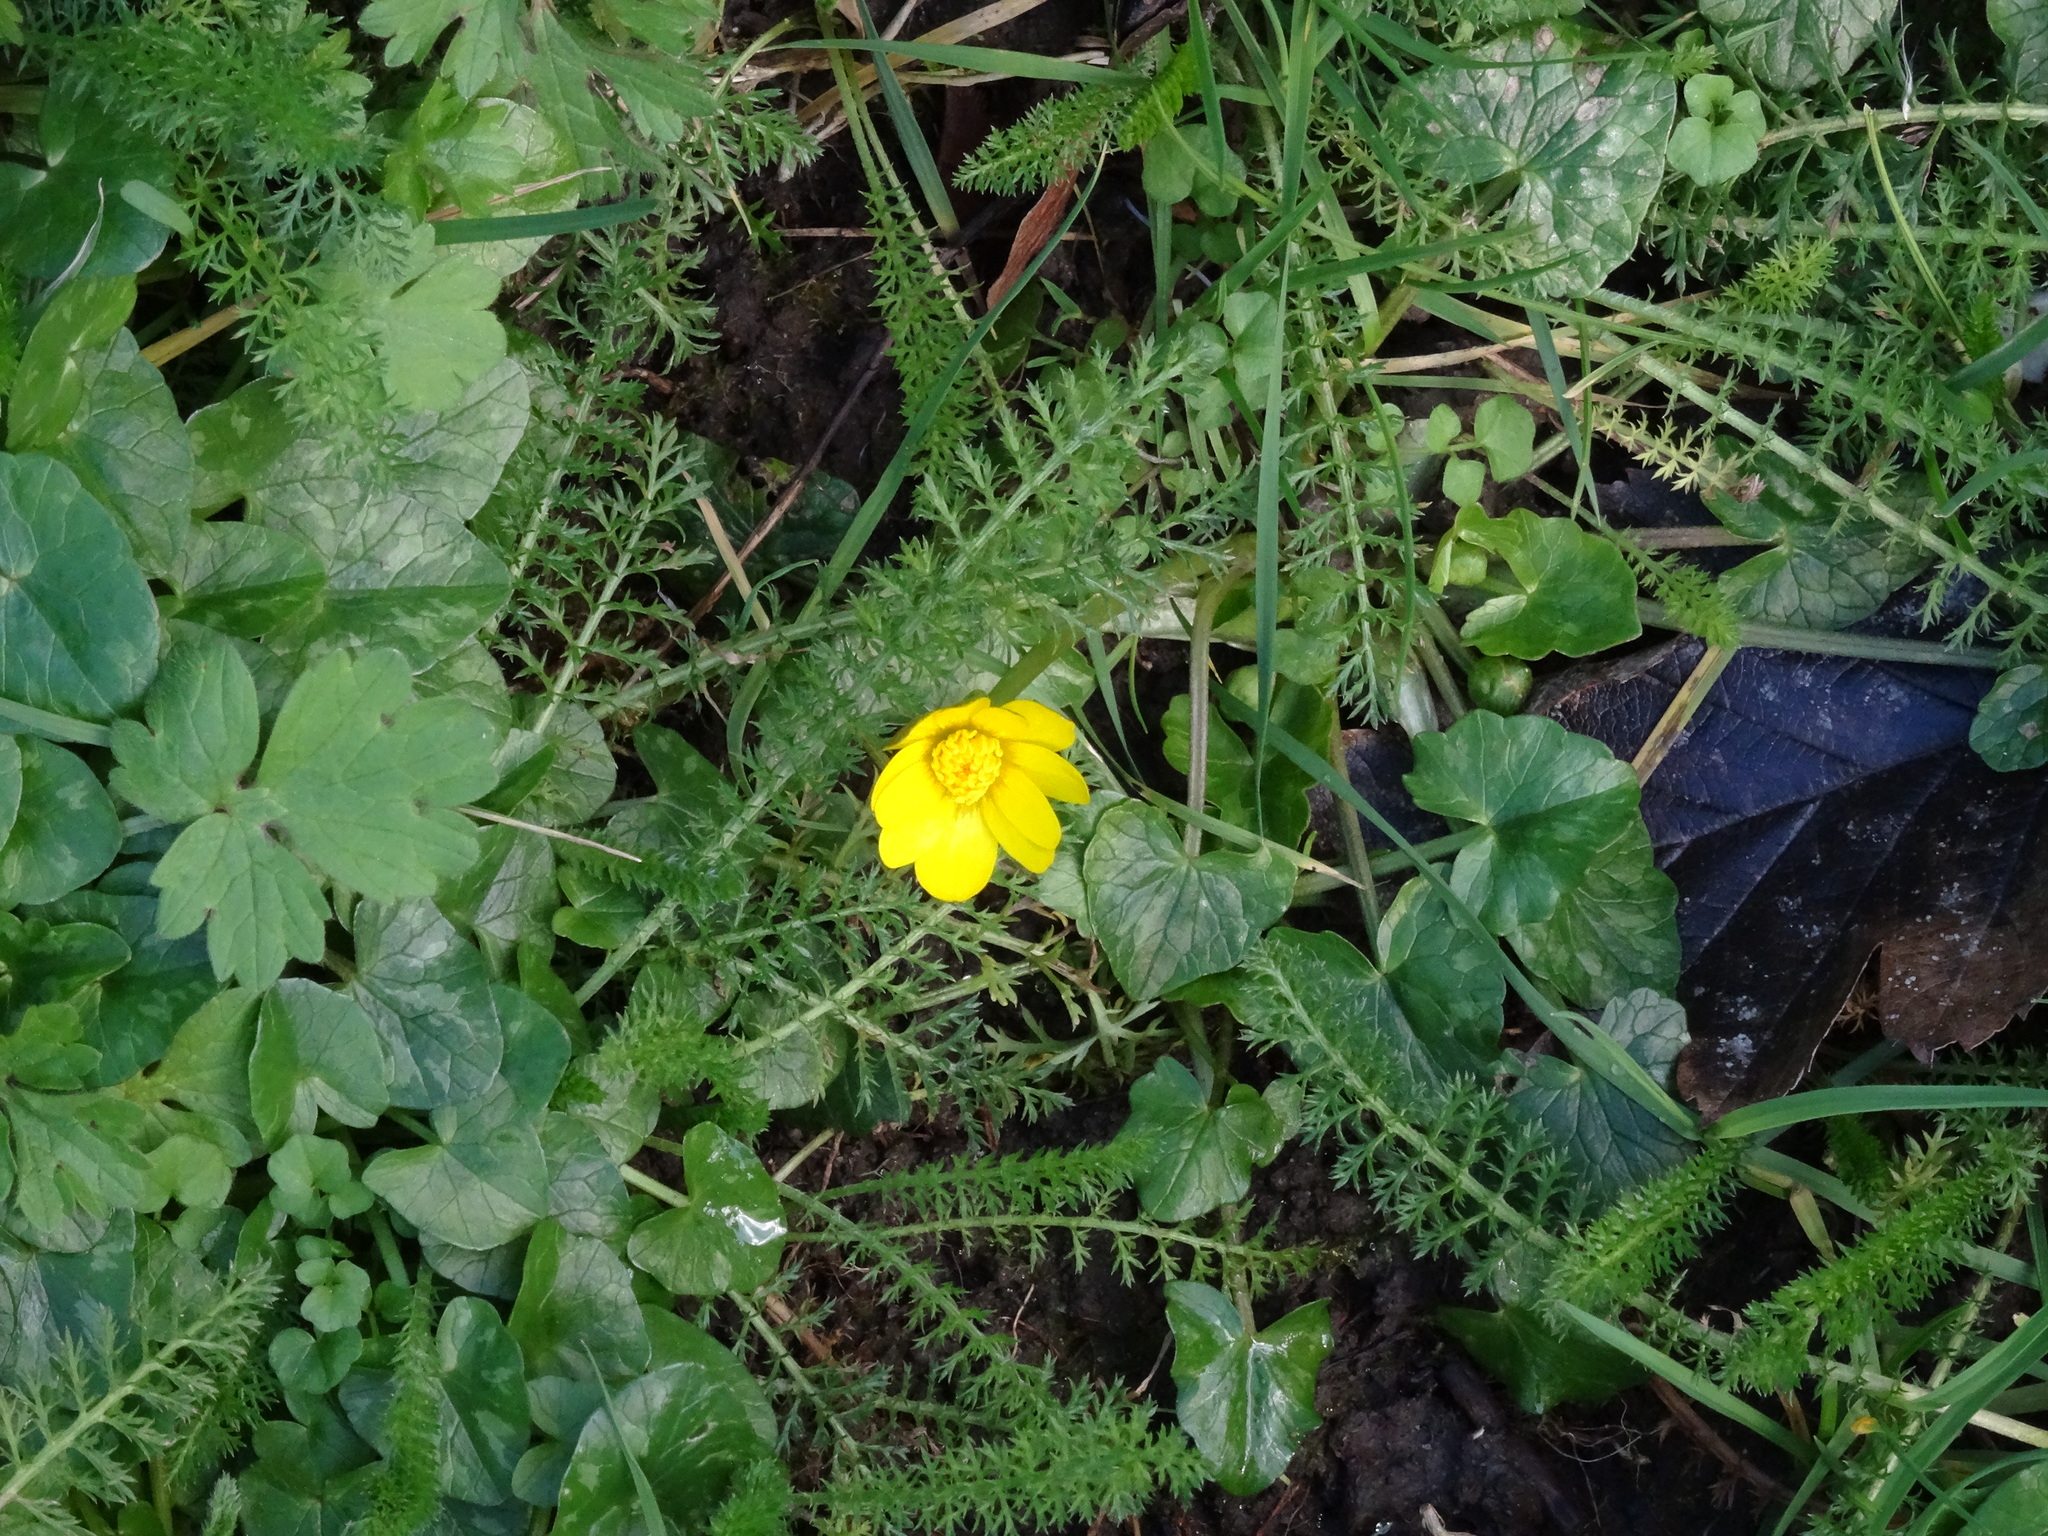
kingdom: Plantae
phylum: Tracheophyta
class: Magnoliopsida
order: Ranunculales
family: Ranunculaceae
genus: Ficaria
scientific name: Ficaria verna
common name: Lesser celandine
